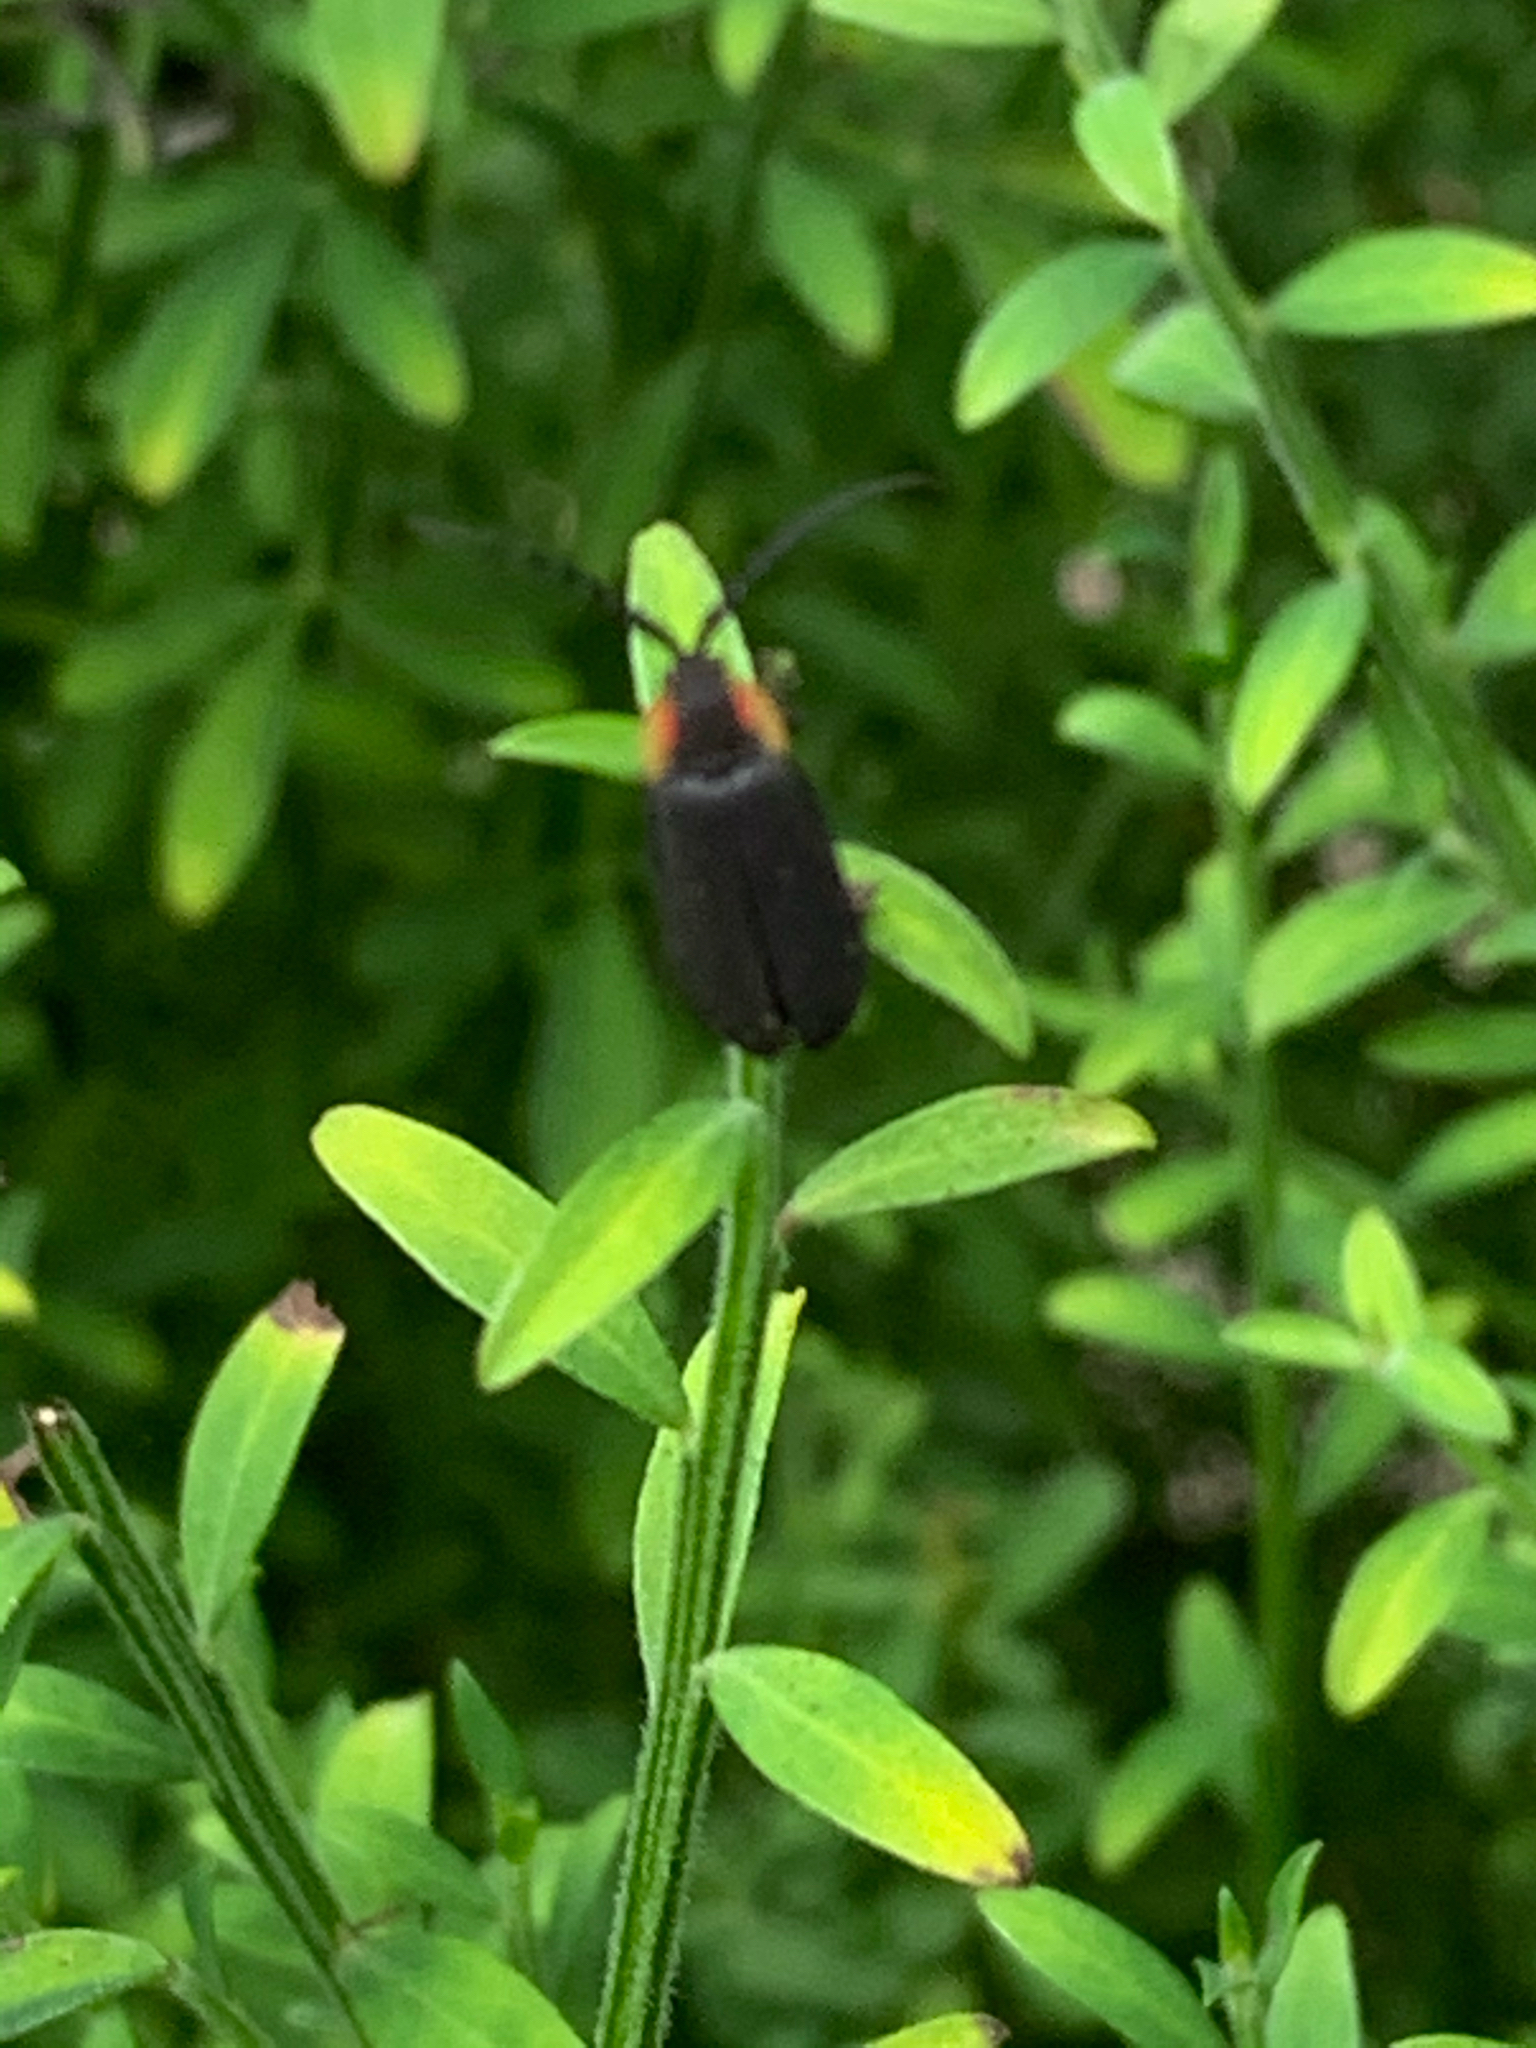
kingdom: Animalia
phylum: Arthropoda
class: Insecta
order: Coleoptera
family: Lampyridae
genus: Lucidota
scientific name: Lucidota atra
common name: Black firefly
